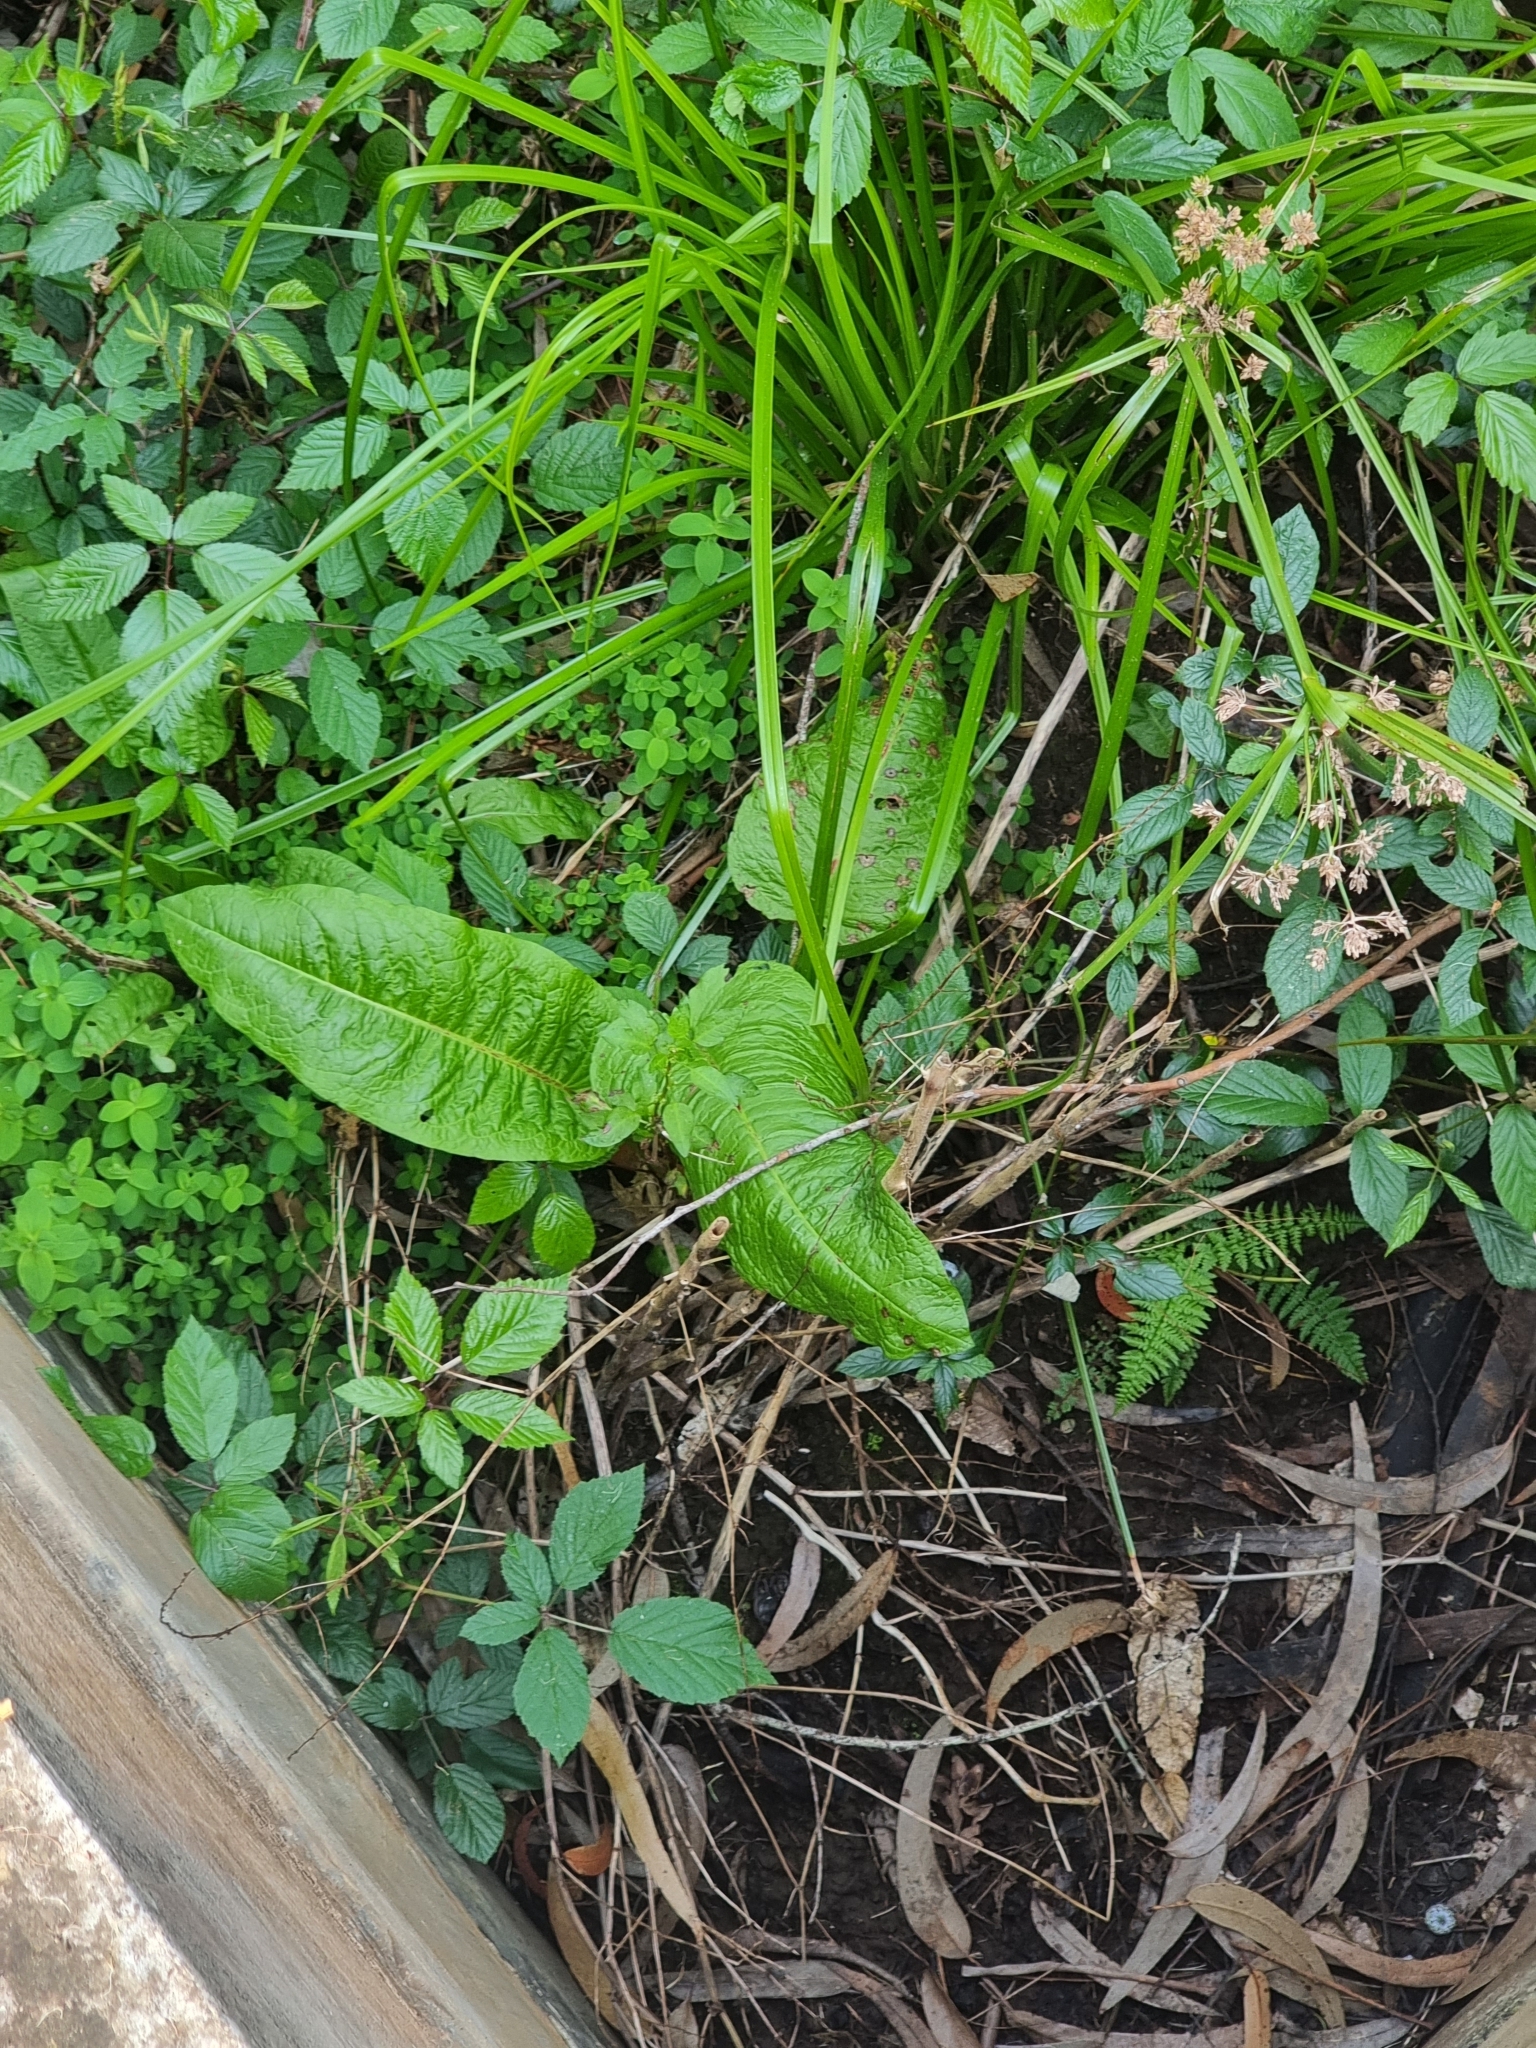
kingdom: Plantae
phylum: Tracheophyta
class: Magnoliopsida
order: Caryophyllales
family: Polygonaceae
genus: Rumex
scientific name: Rumex obtusifolius
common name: Bitter dock
